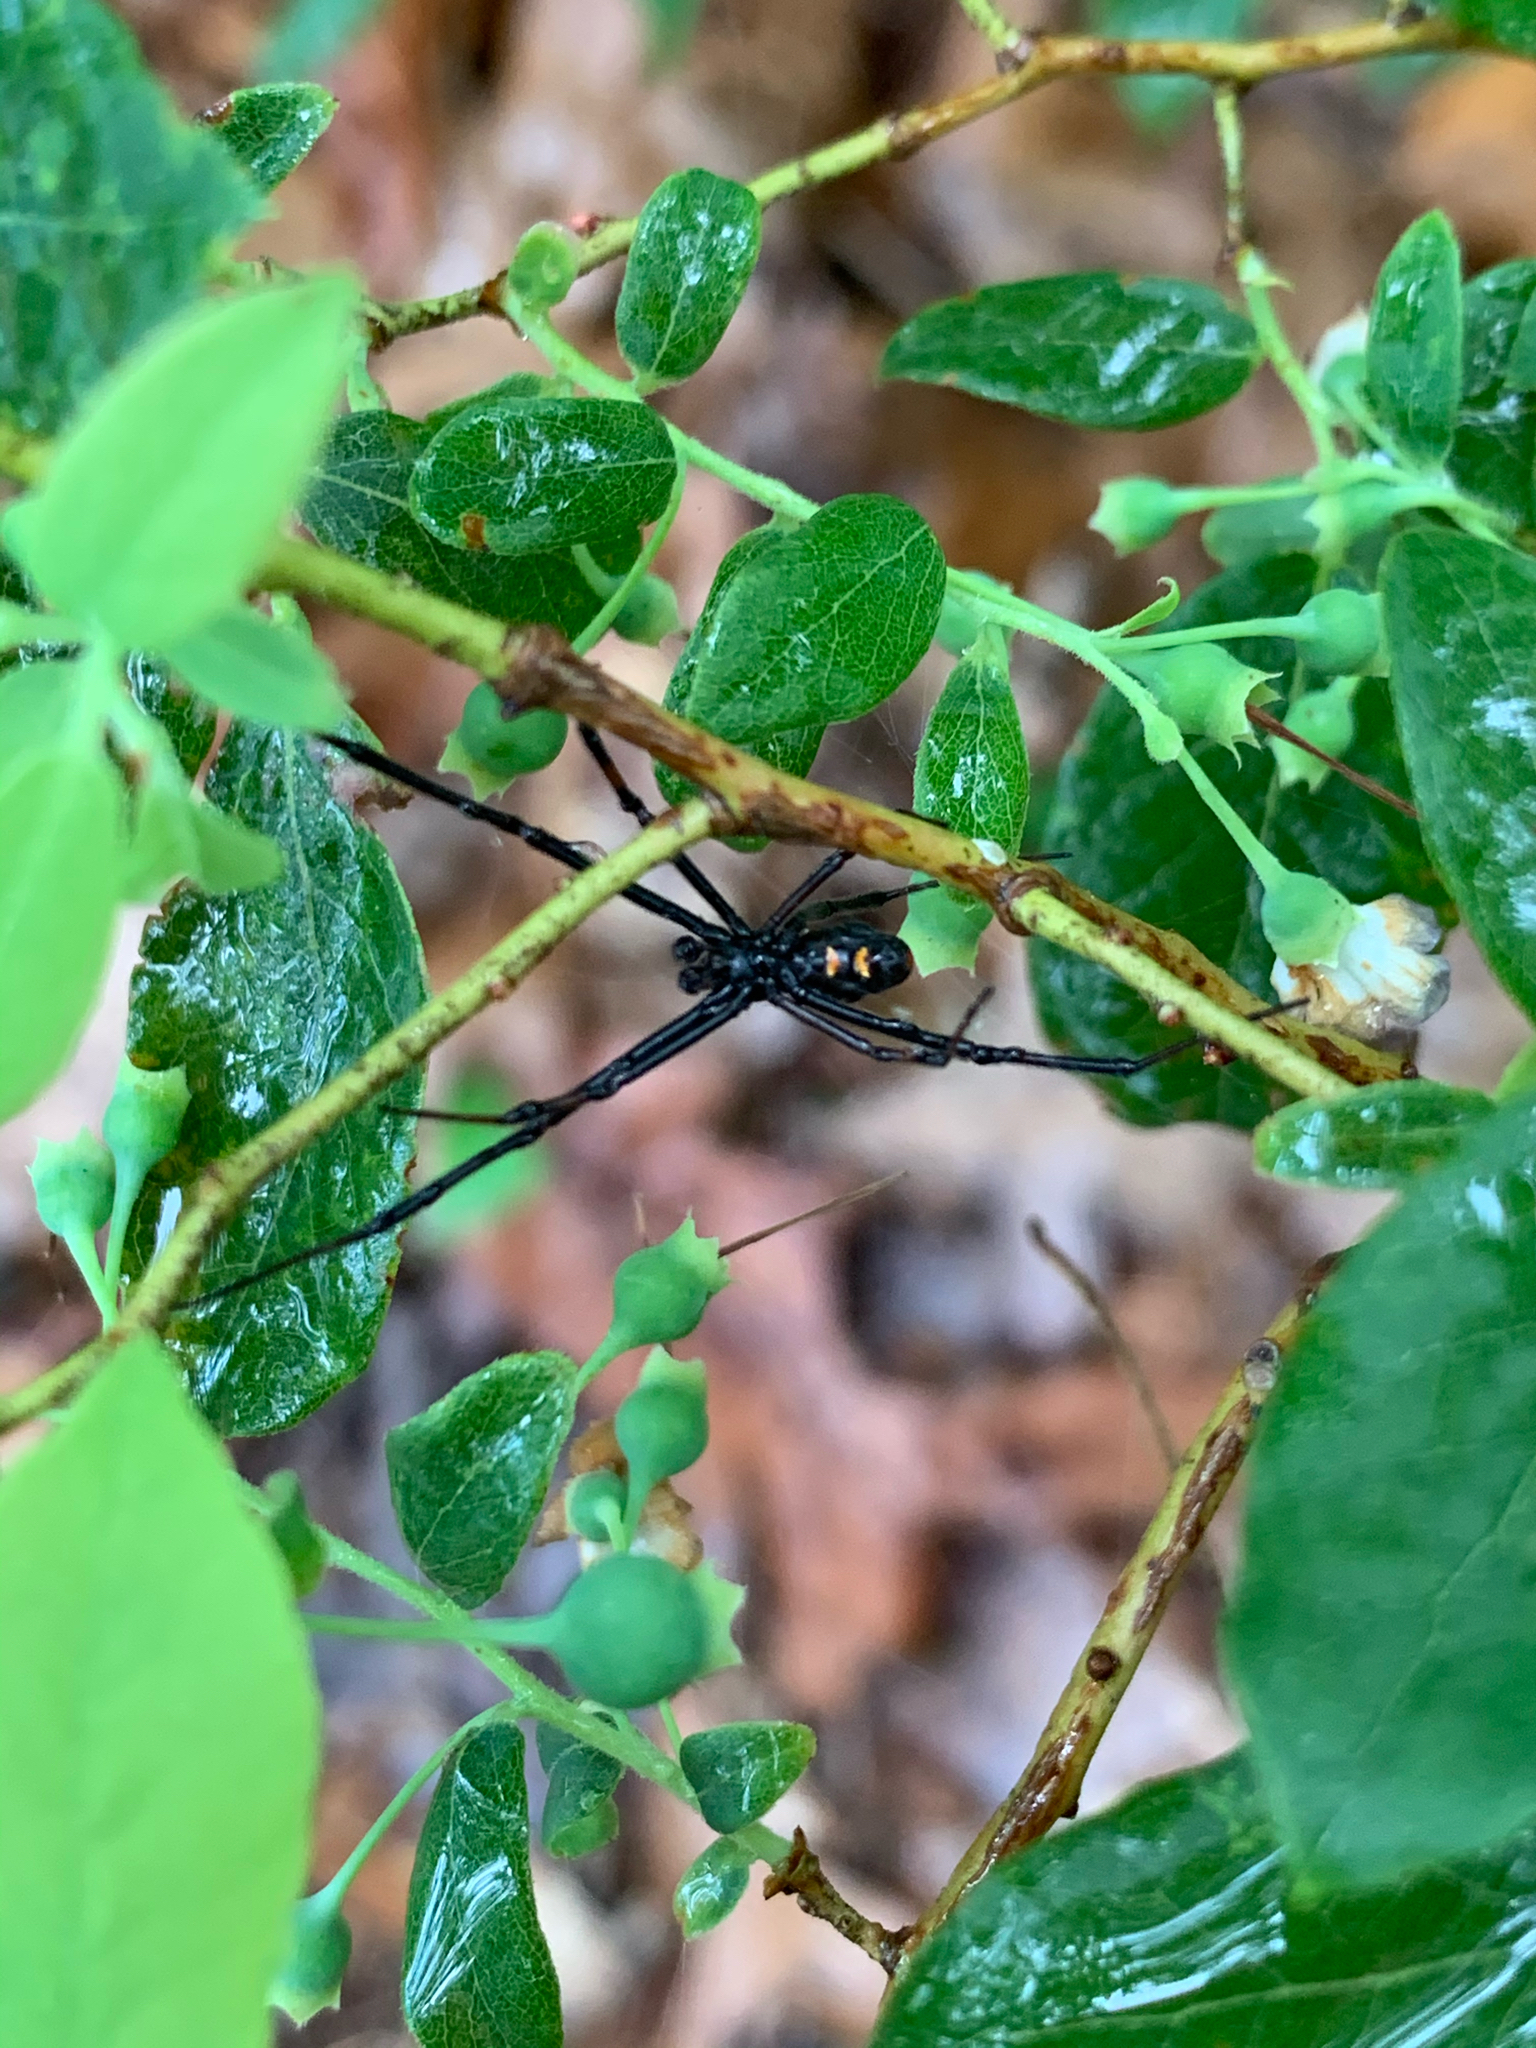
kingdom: Animalia
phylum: Arthropoda
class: Arachnida
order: Araneae
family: Theridiidae
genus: Latrodectus
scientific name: Latrodectus variolus
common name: Northern black widow
